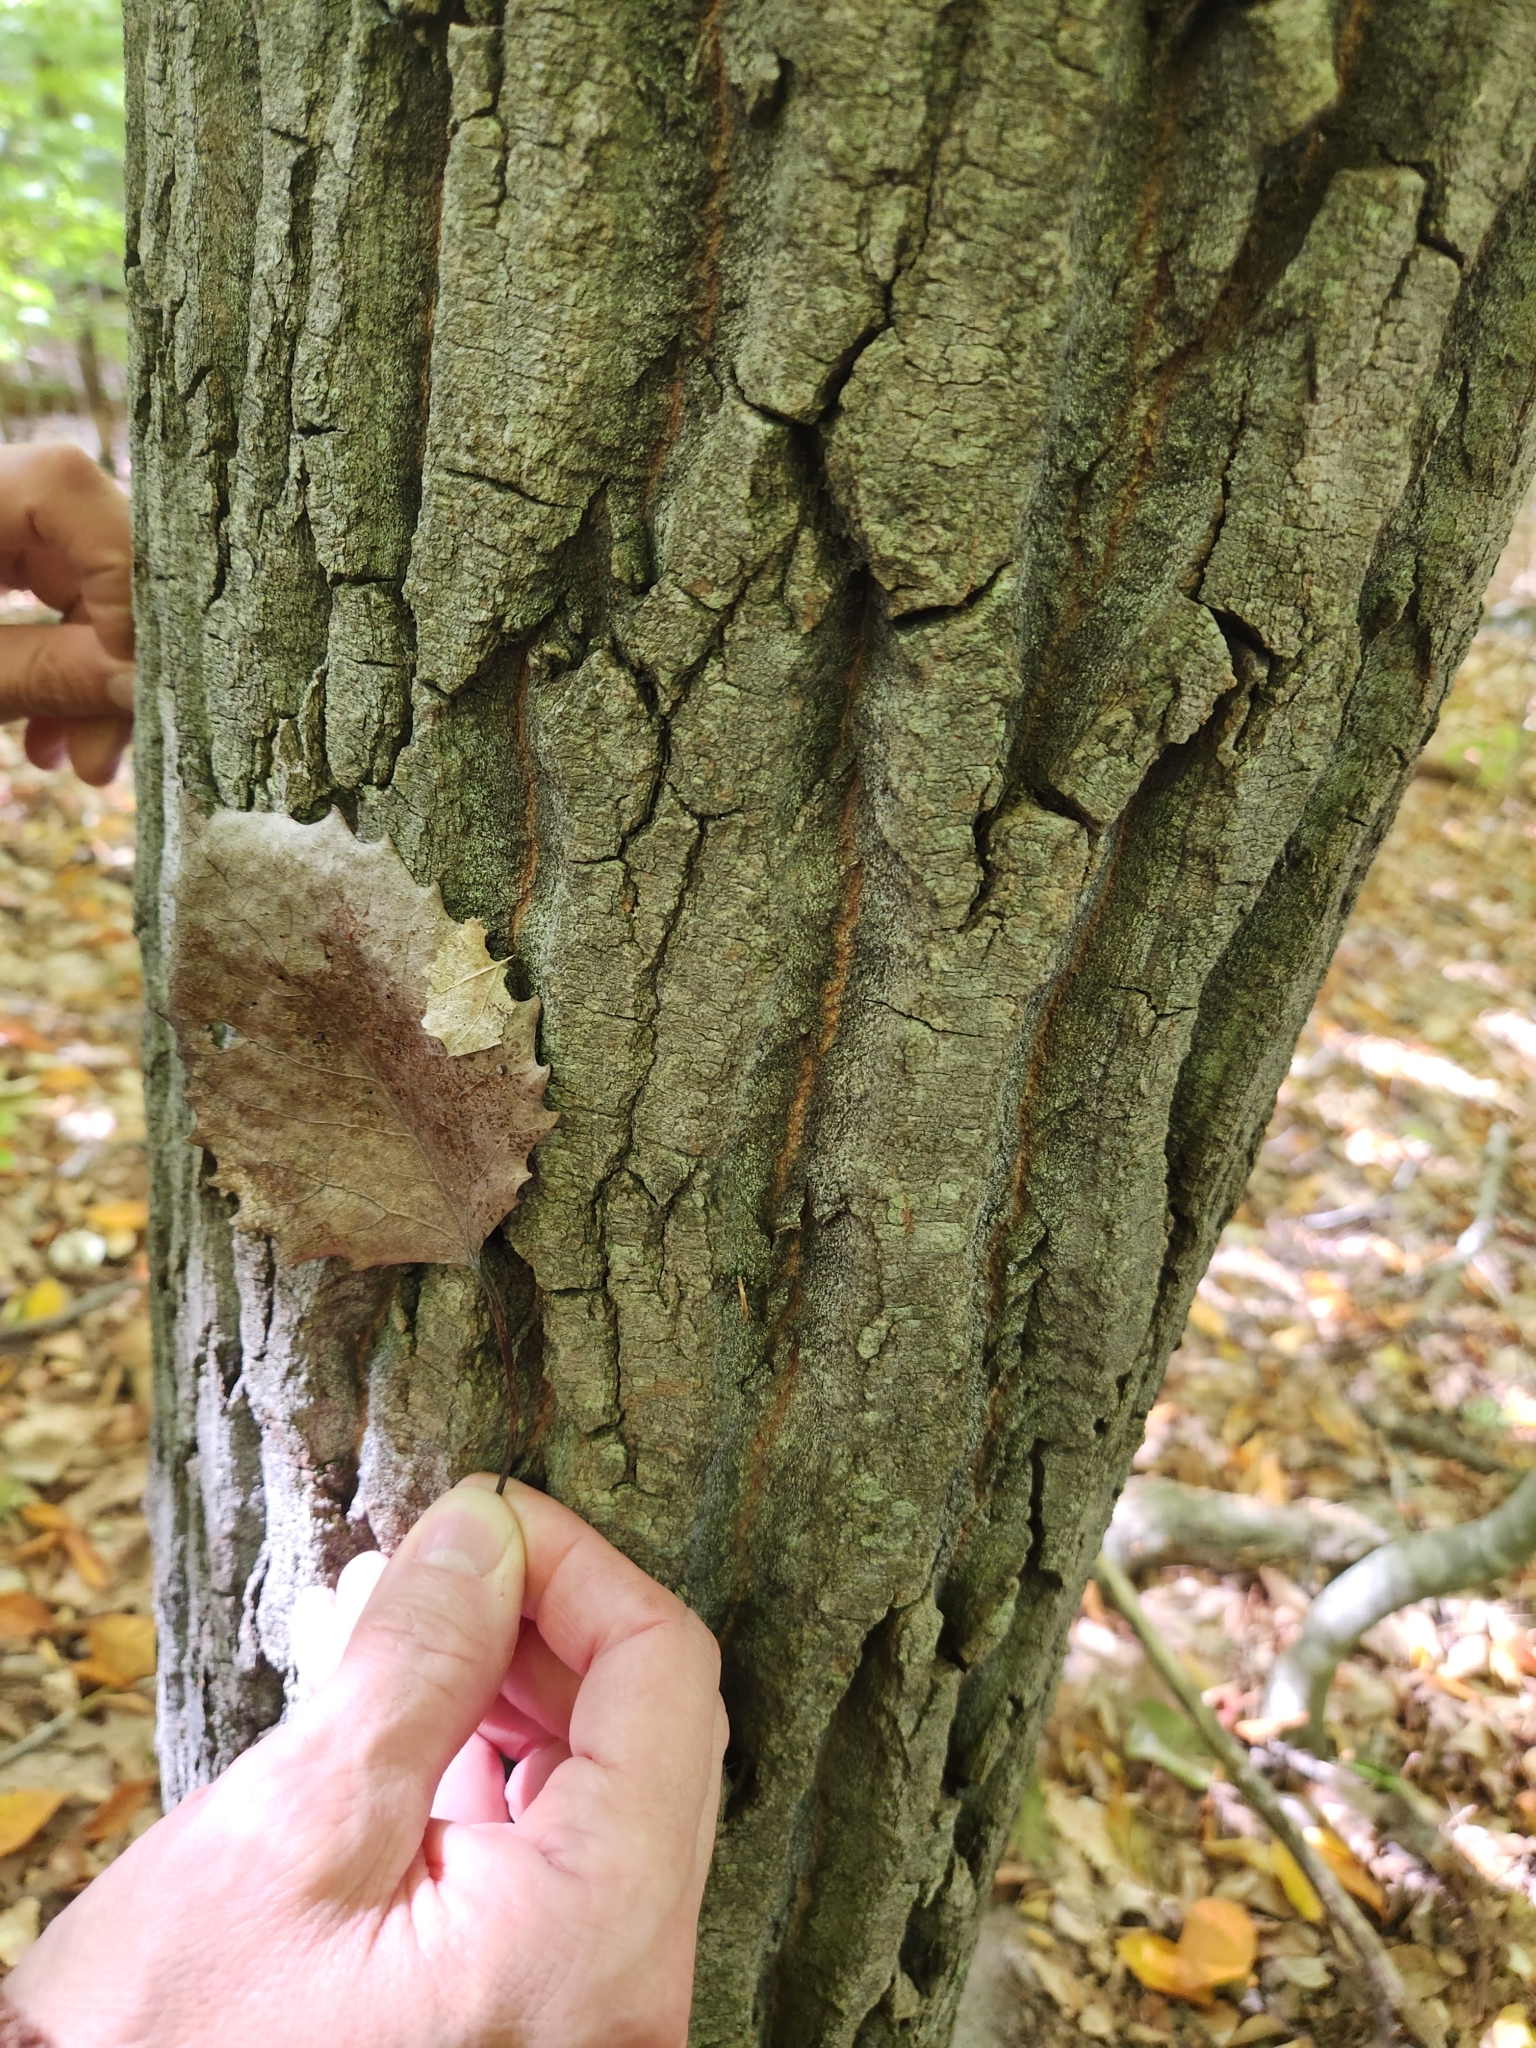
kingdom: Plantae
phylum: Tracheophyta
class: Magnoliopsida
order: Malpighiales
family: Salicaceae
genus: Populus
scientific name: Populus grandidentata
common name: Bigtooth aspen
